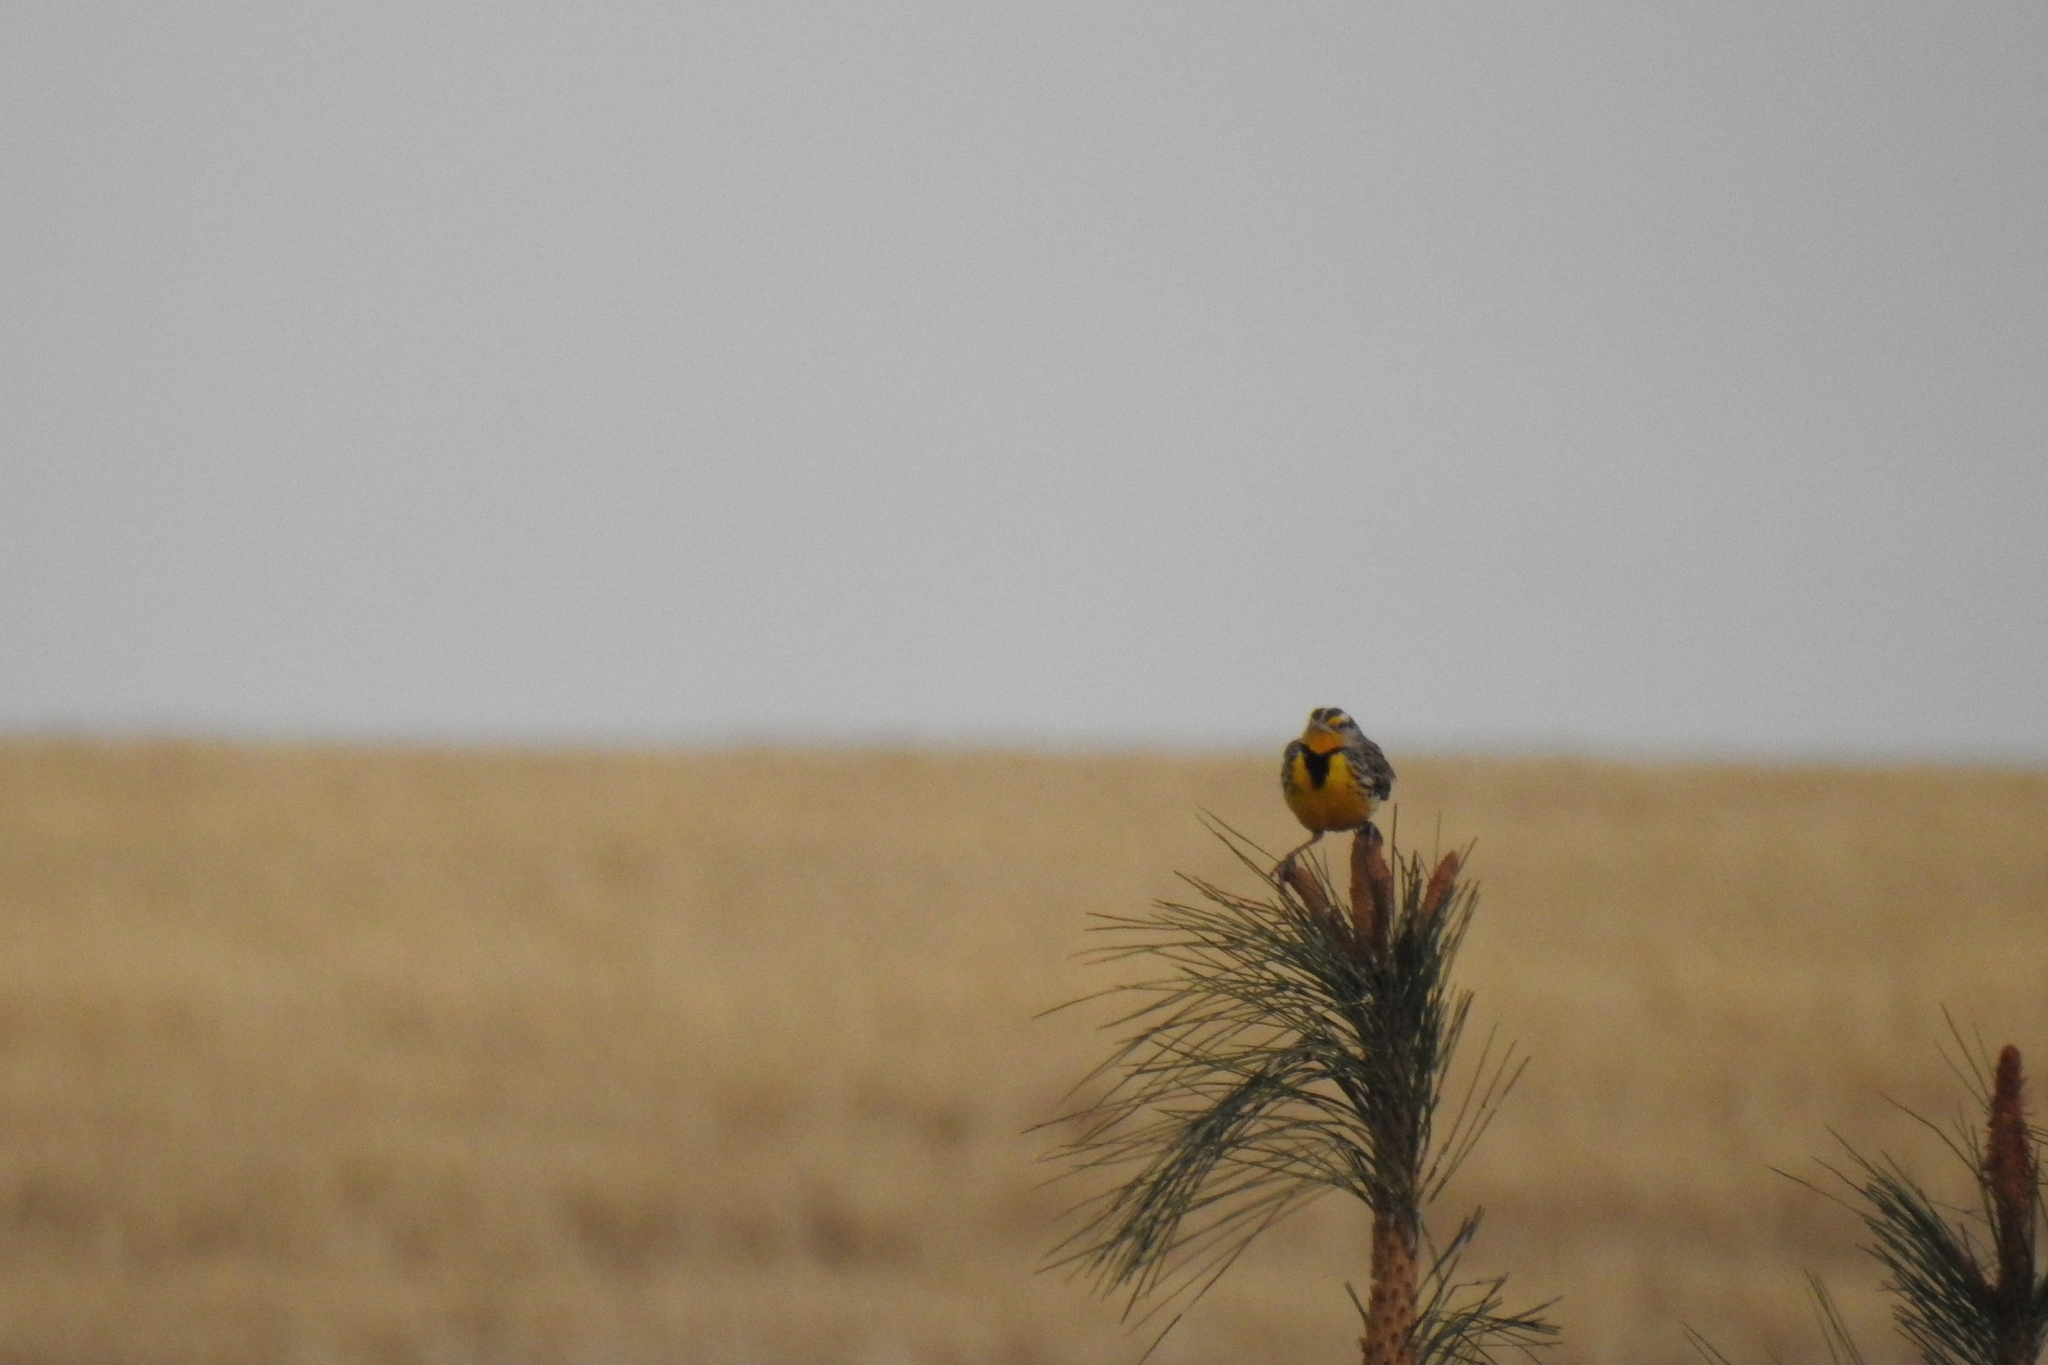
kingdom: Animalia
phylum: Chordata
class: Aves
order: Passeriformes
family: Icteridae
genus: Sturnella
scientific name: Sturnella neglecta
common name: Western meadowlark
